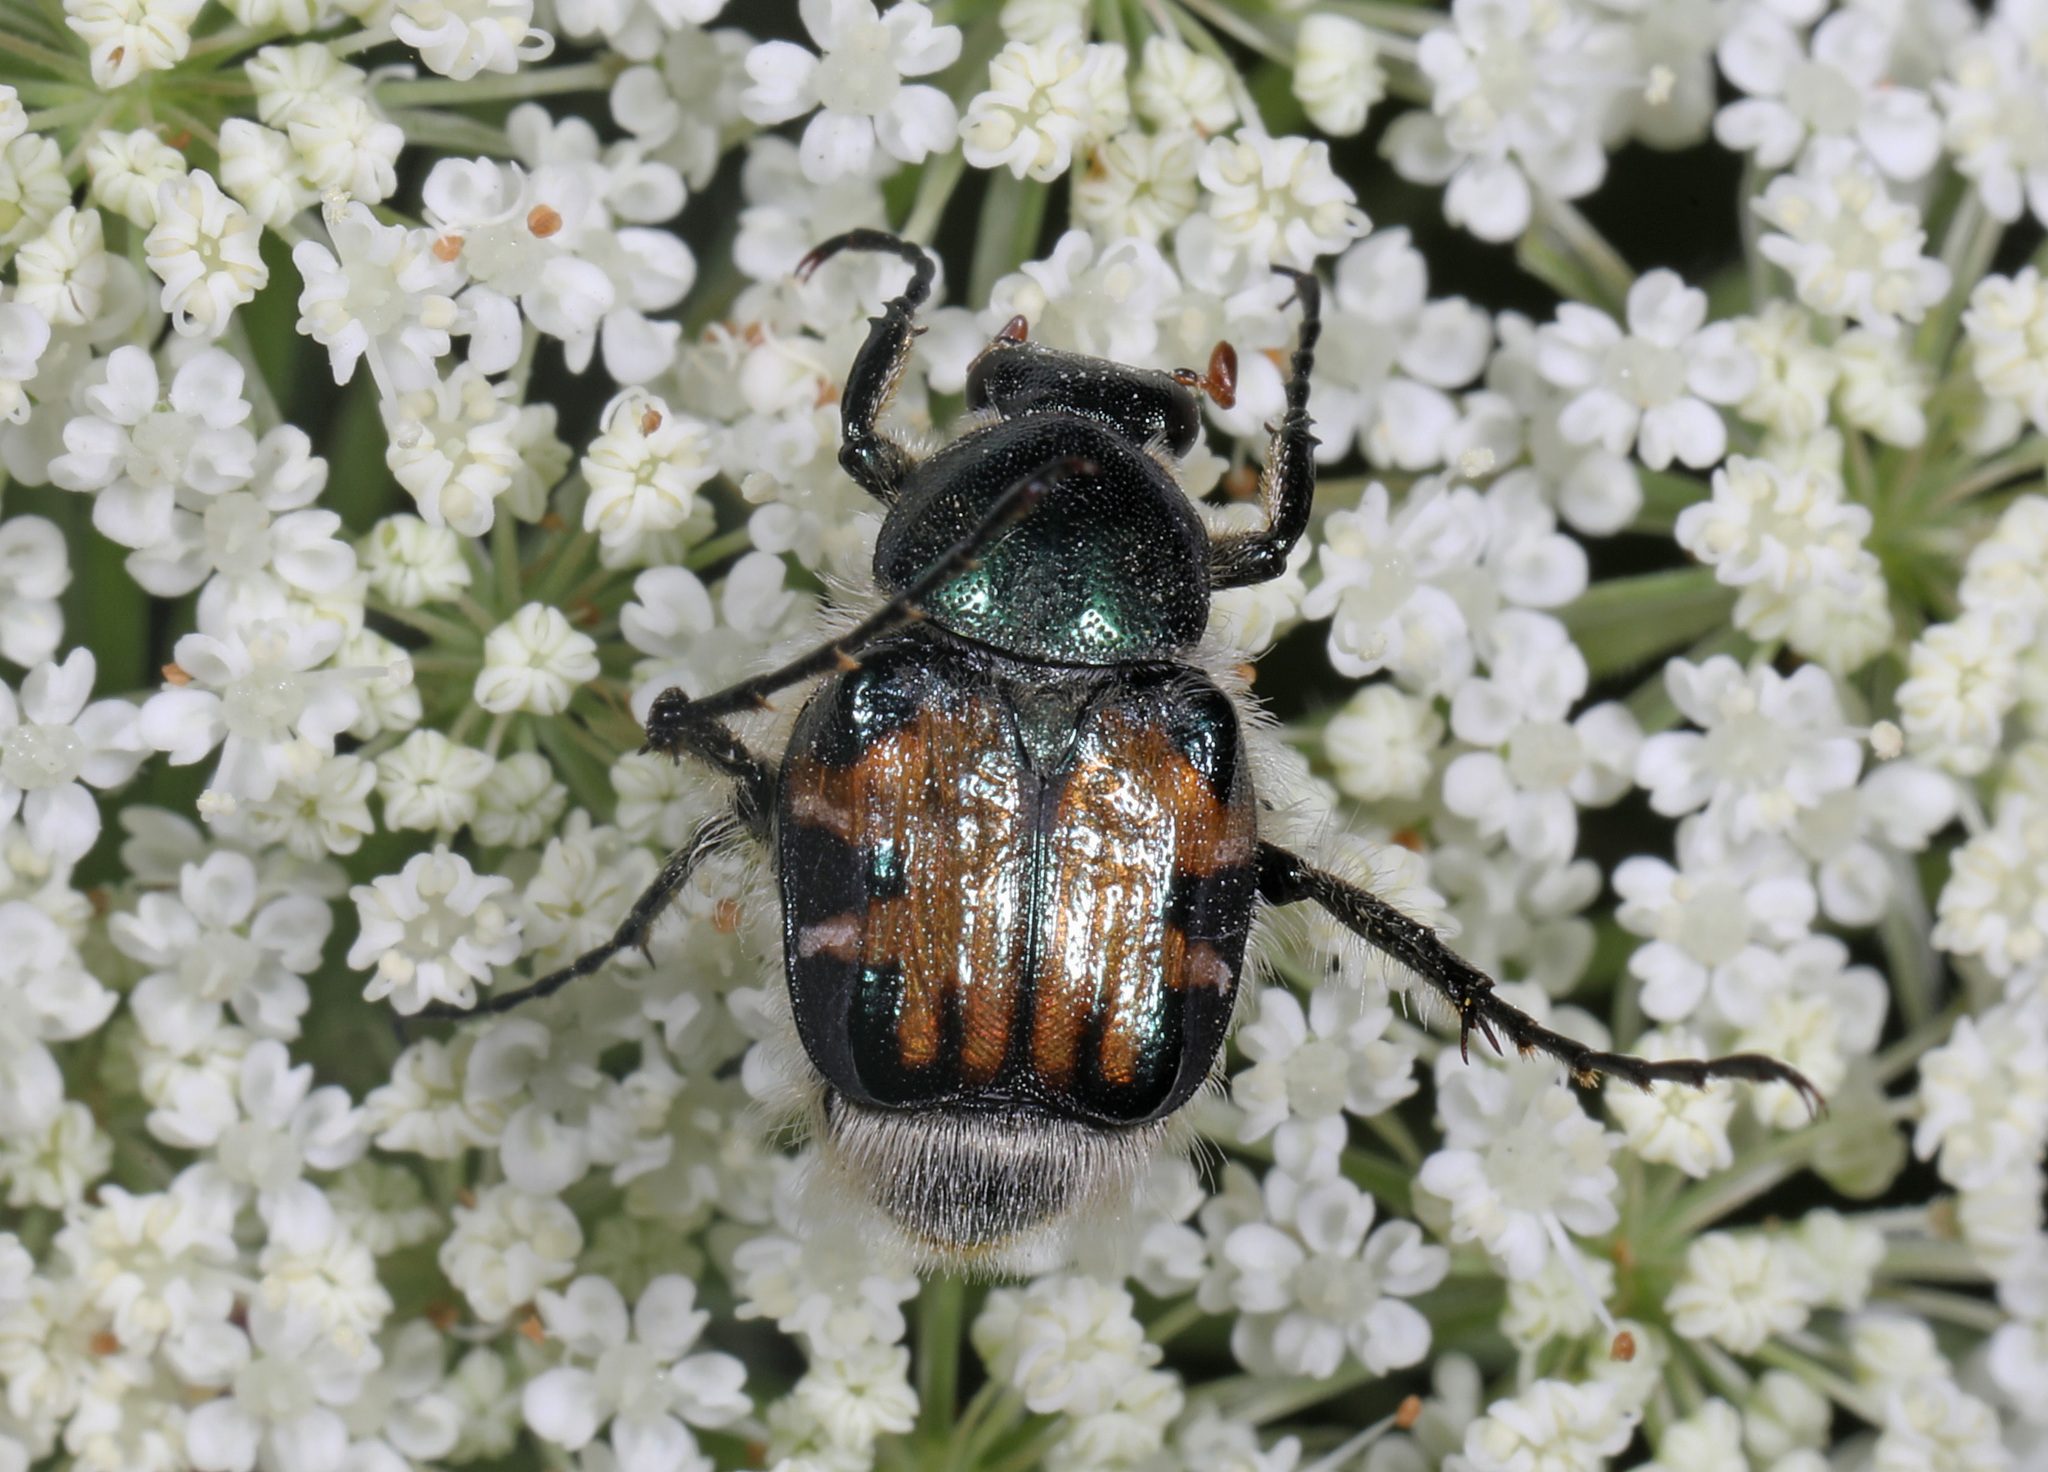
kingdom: Animalia
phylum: Arthropoda
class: Insecta
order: Coleoptera
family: Scarabaeidae
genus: Trichiotinus
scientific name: Trichiotinus affinis
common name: Hairy flower scarab
